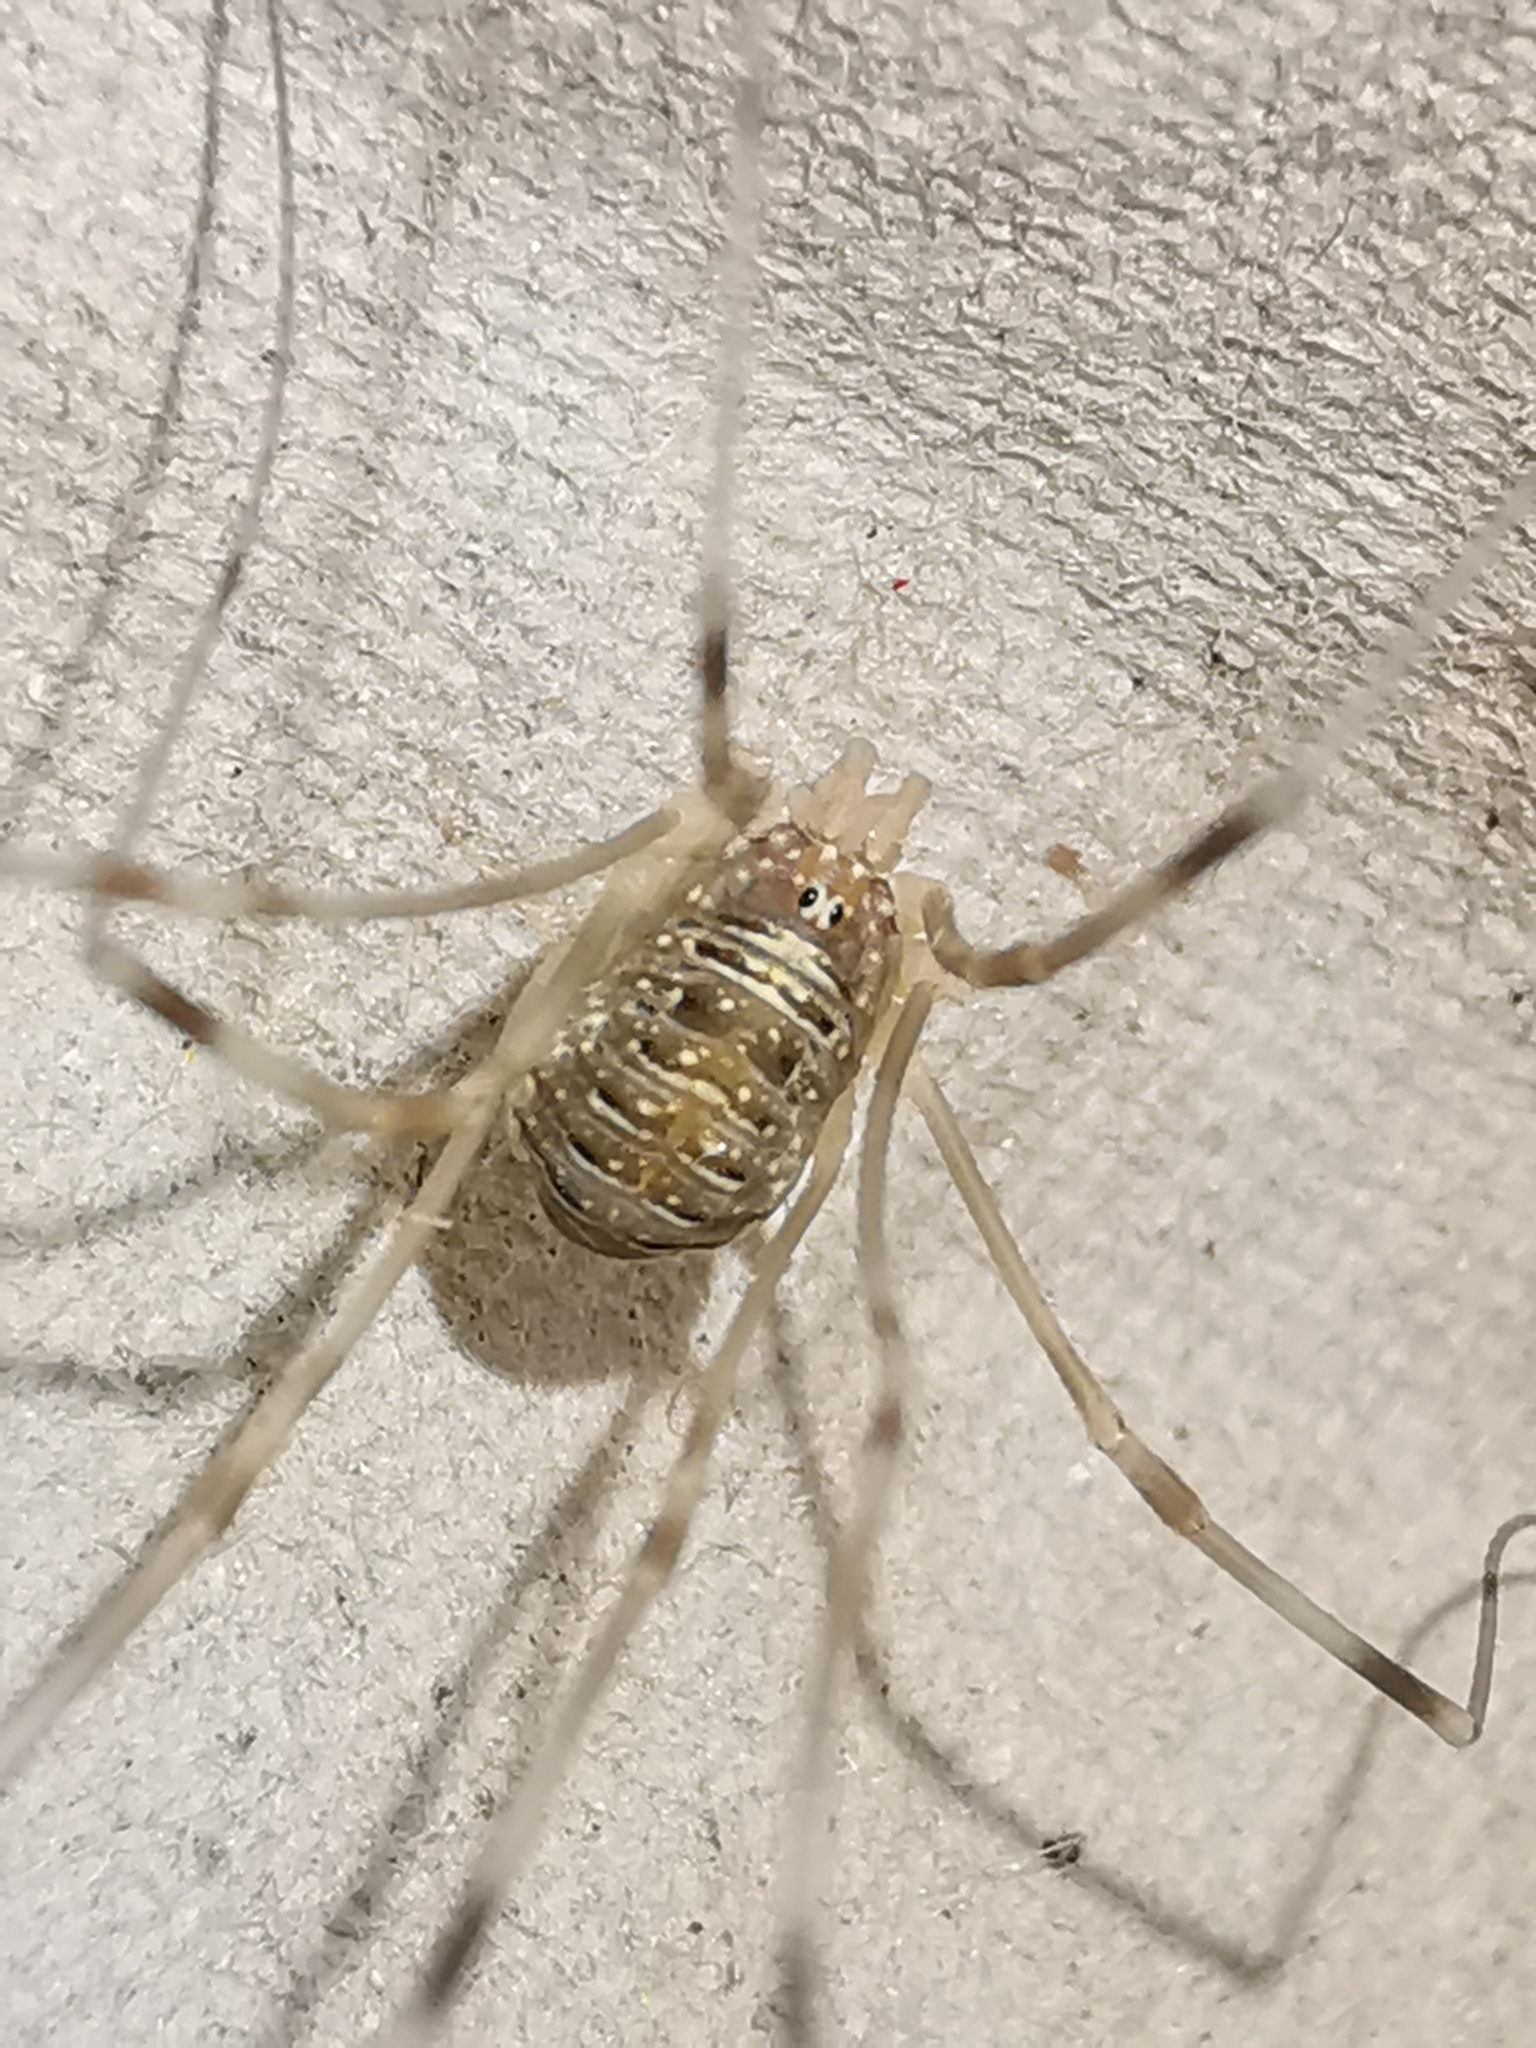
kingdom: Animalia
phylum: Arthropoda
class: Arachnida
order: Opiliones
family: Phalangiidae
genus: Opilio
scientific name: Opilio canestrinii
